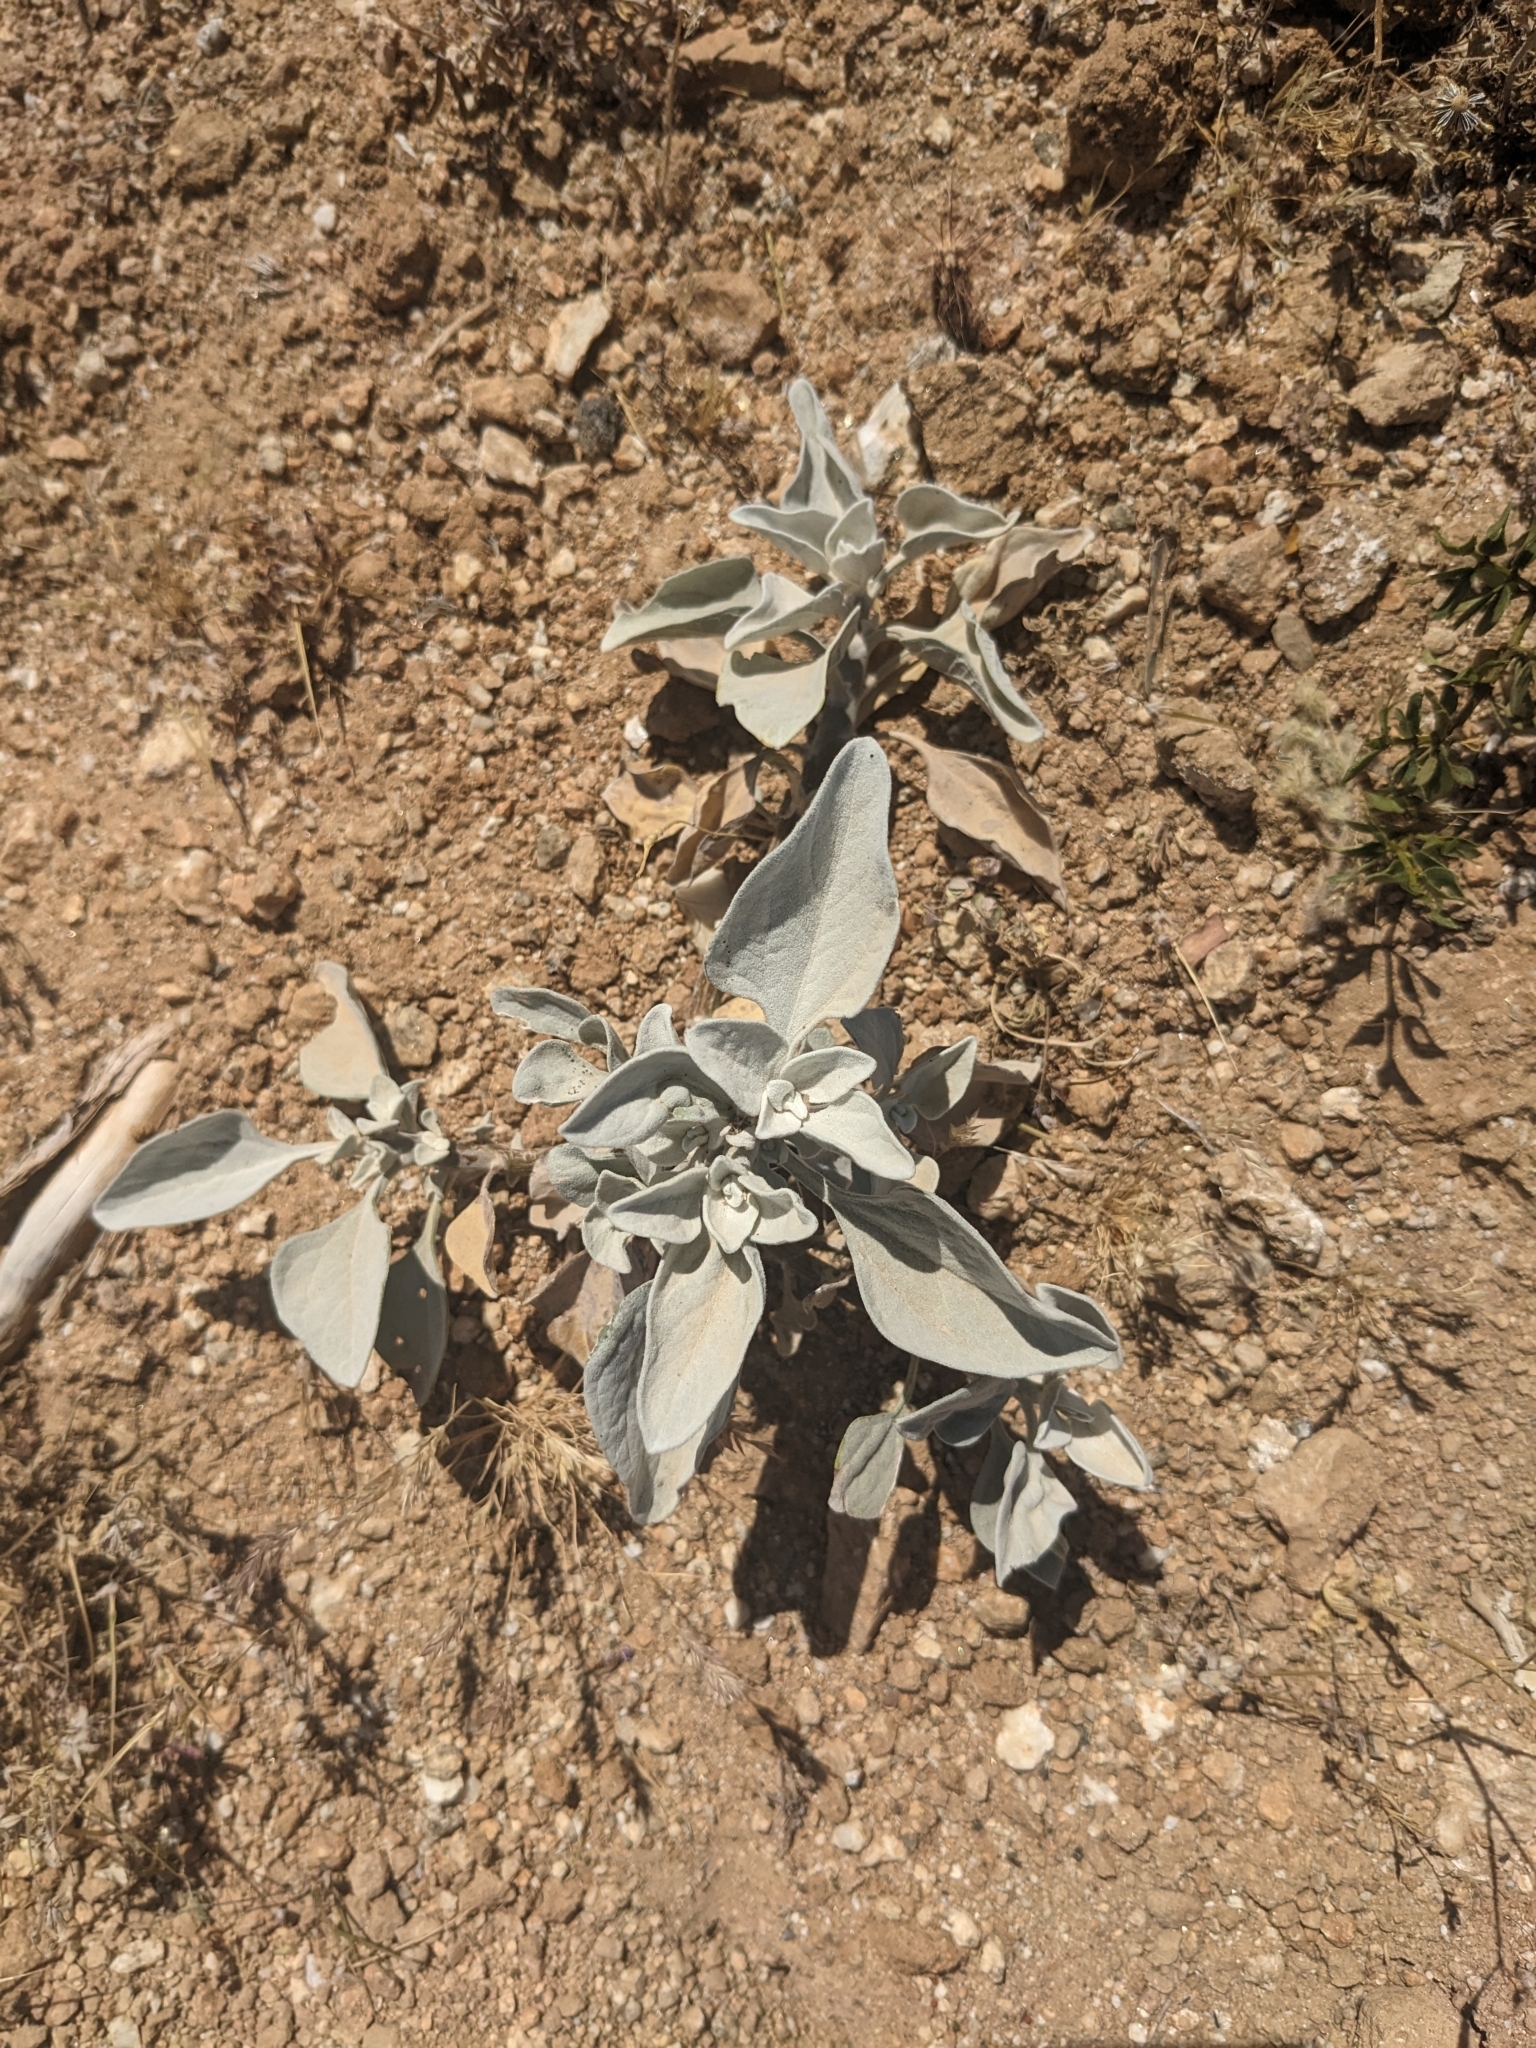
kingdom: Plantae
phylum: Tracheophyta
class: Magnoliopsida
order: Asterales
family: Asteraceae
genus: Encelia
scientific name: Encelia farinosa
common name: Brittlebush
